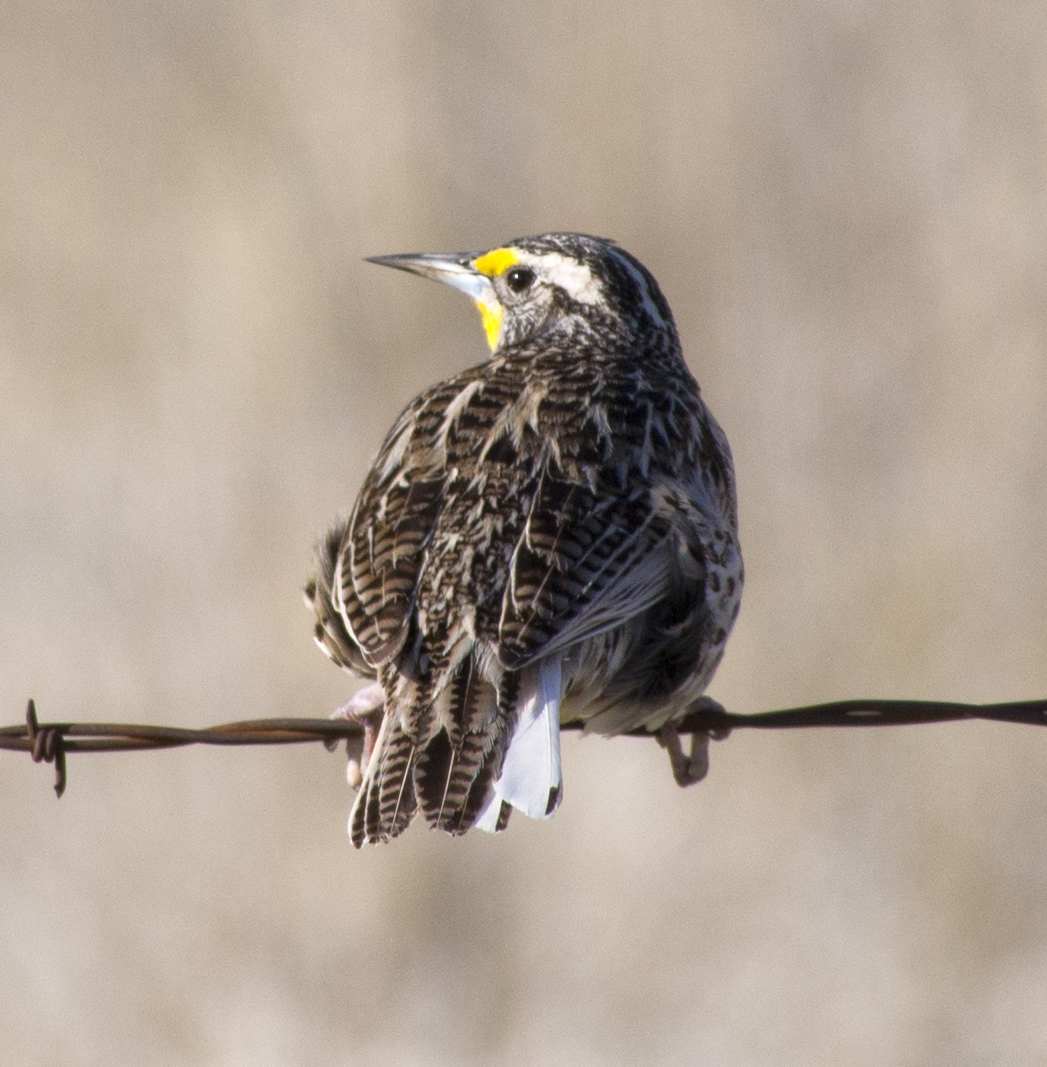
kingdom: Animalia
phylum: Chordata
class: Aves
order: Passeriformes
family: Icteridae
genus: Sturnella
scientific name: Sturnella neglecta
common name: Western meadowlark
